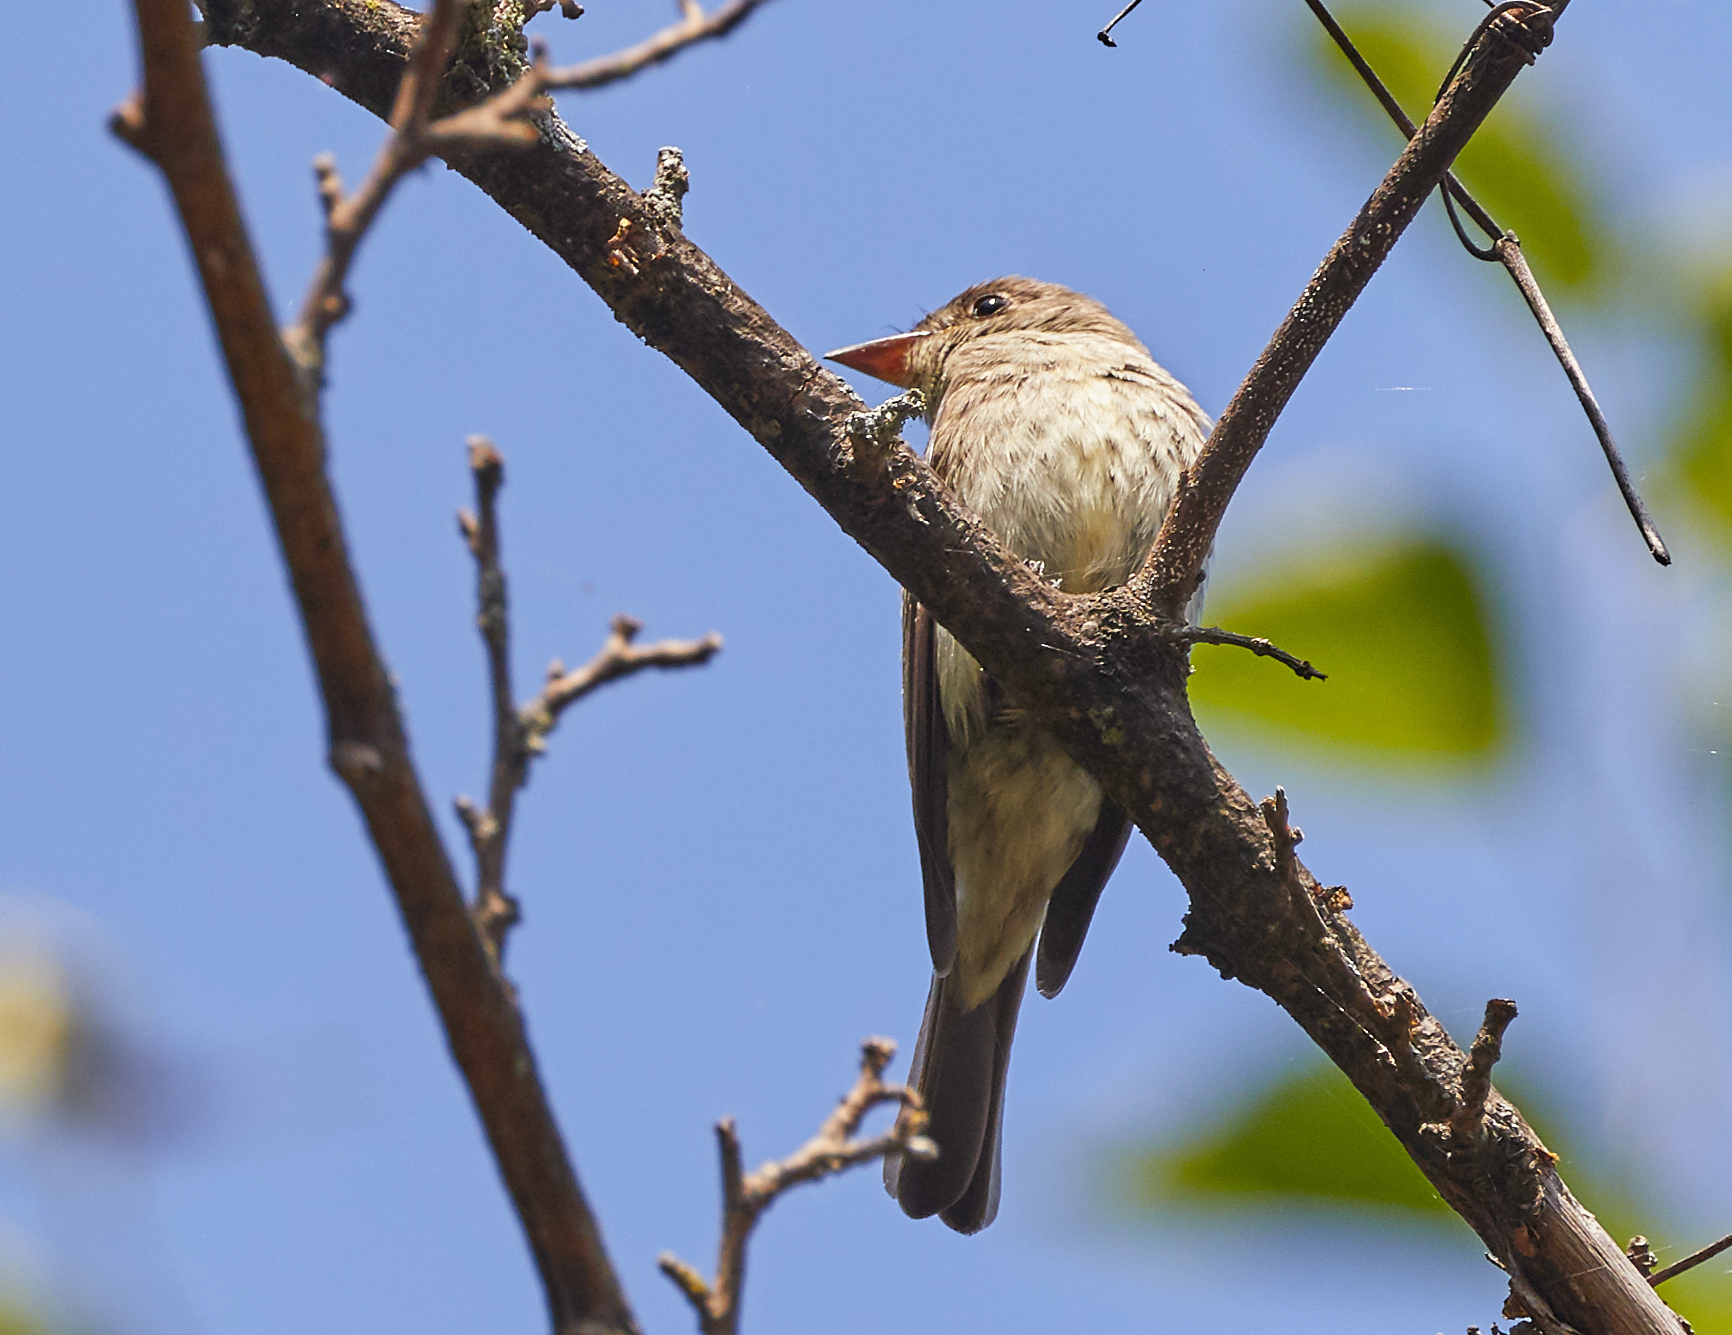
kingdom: Animalia
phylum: Chordata
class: Aves
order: Passeriformes
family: Tyrannidae
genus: Contopus
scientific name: Contopus virens
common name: Eastern wood-pewee
